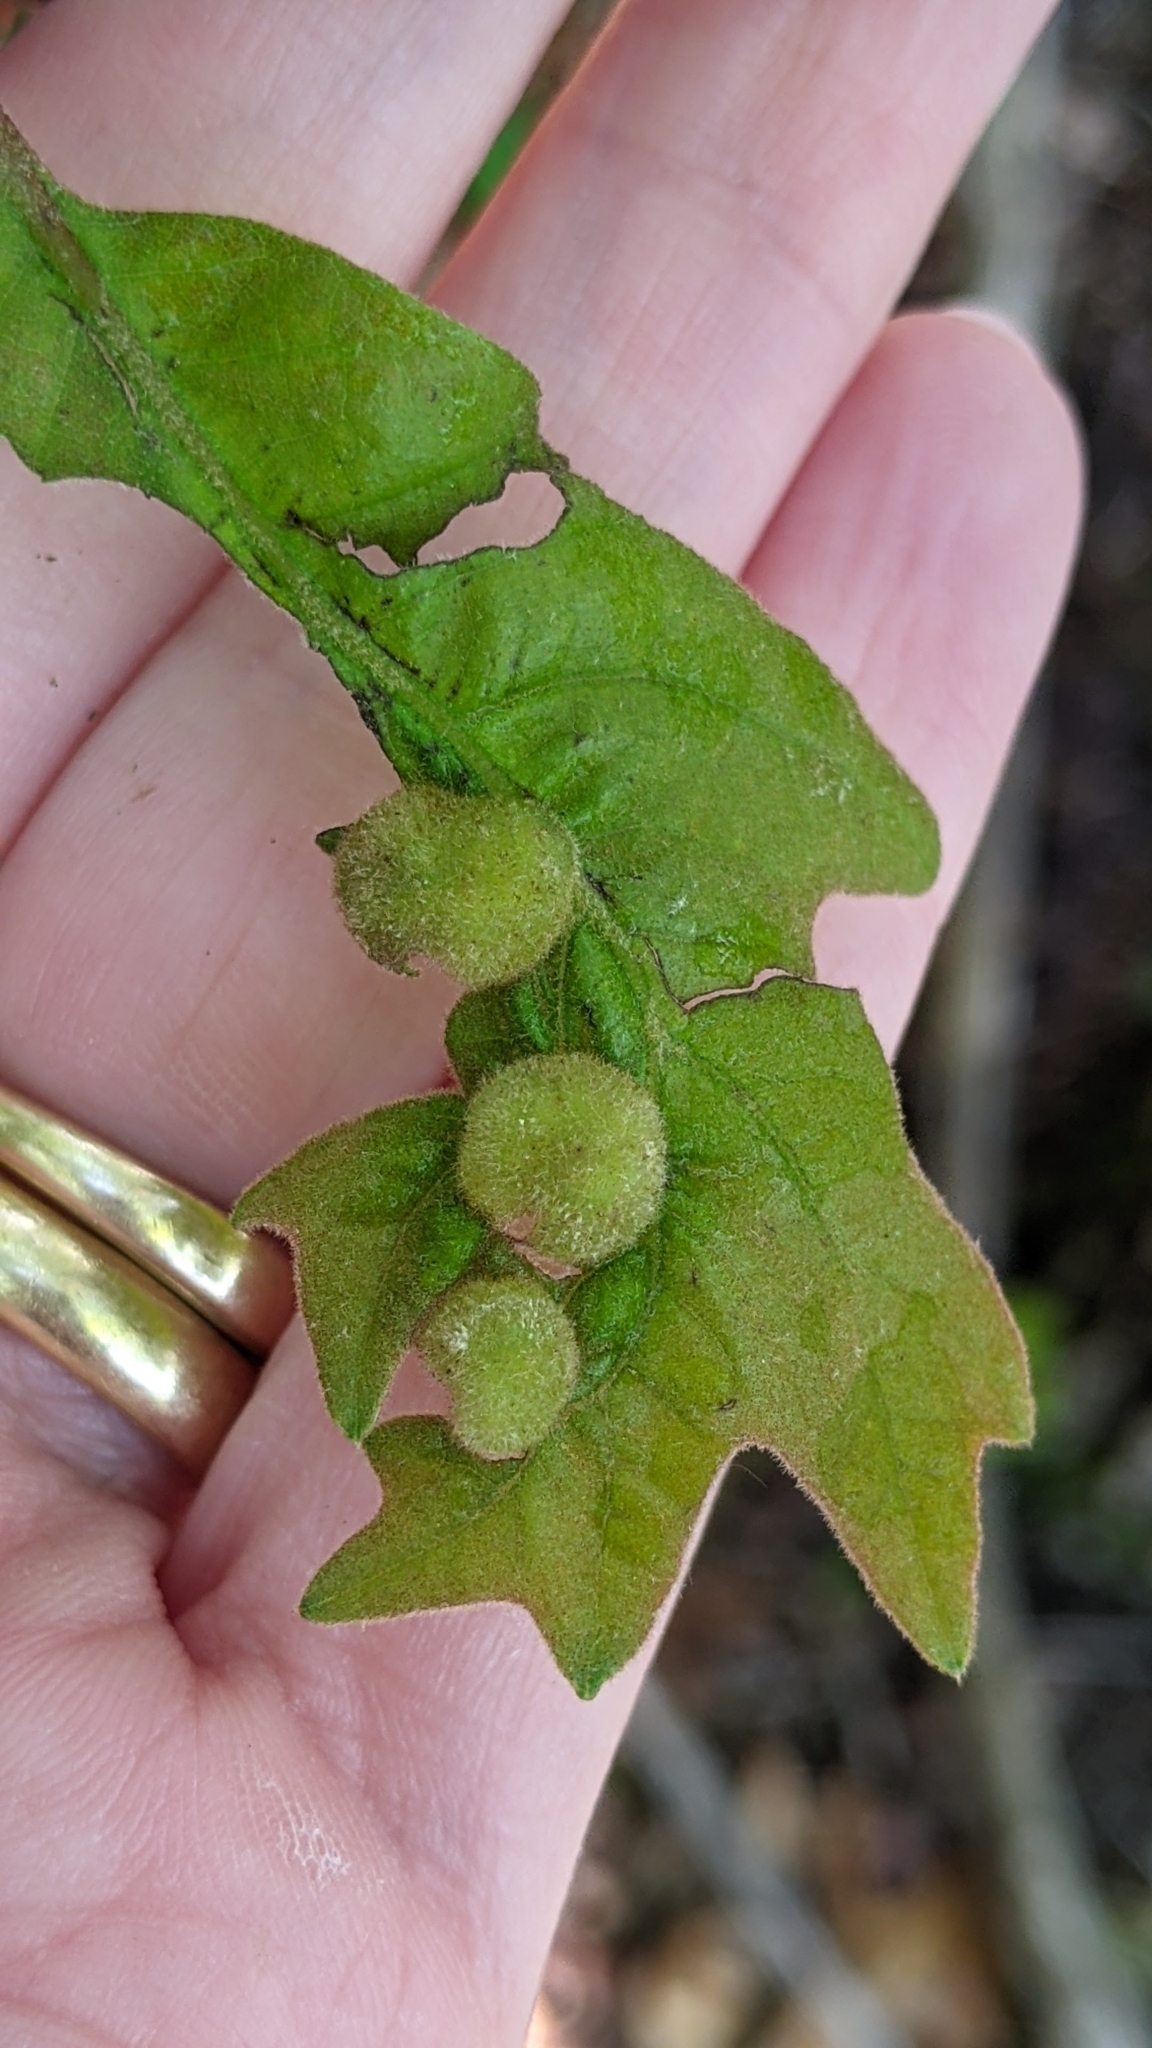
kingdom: Animalia
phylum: Arthropoda
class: Insecta
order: Hymenoptera
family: Cynipidae
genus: Neuroterus
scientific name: Neuroterus quercusirregularis
